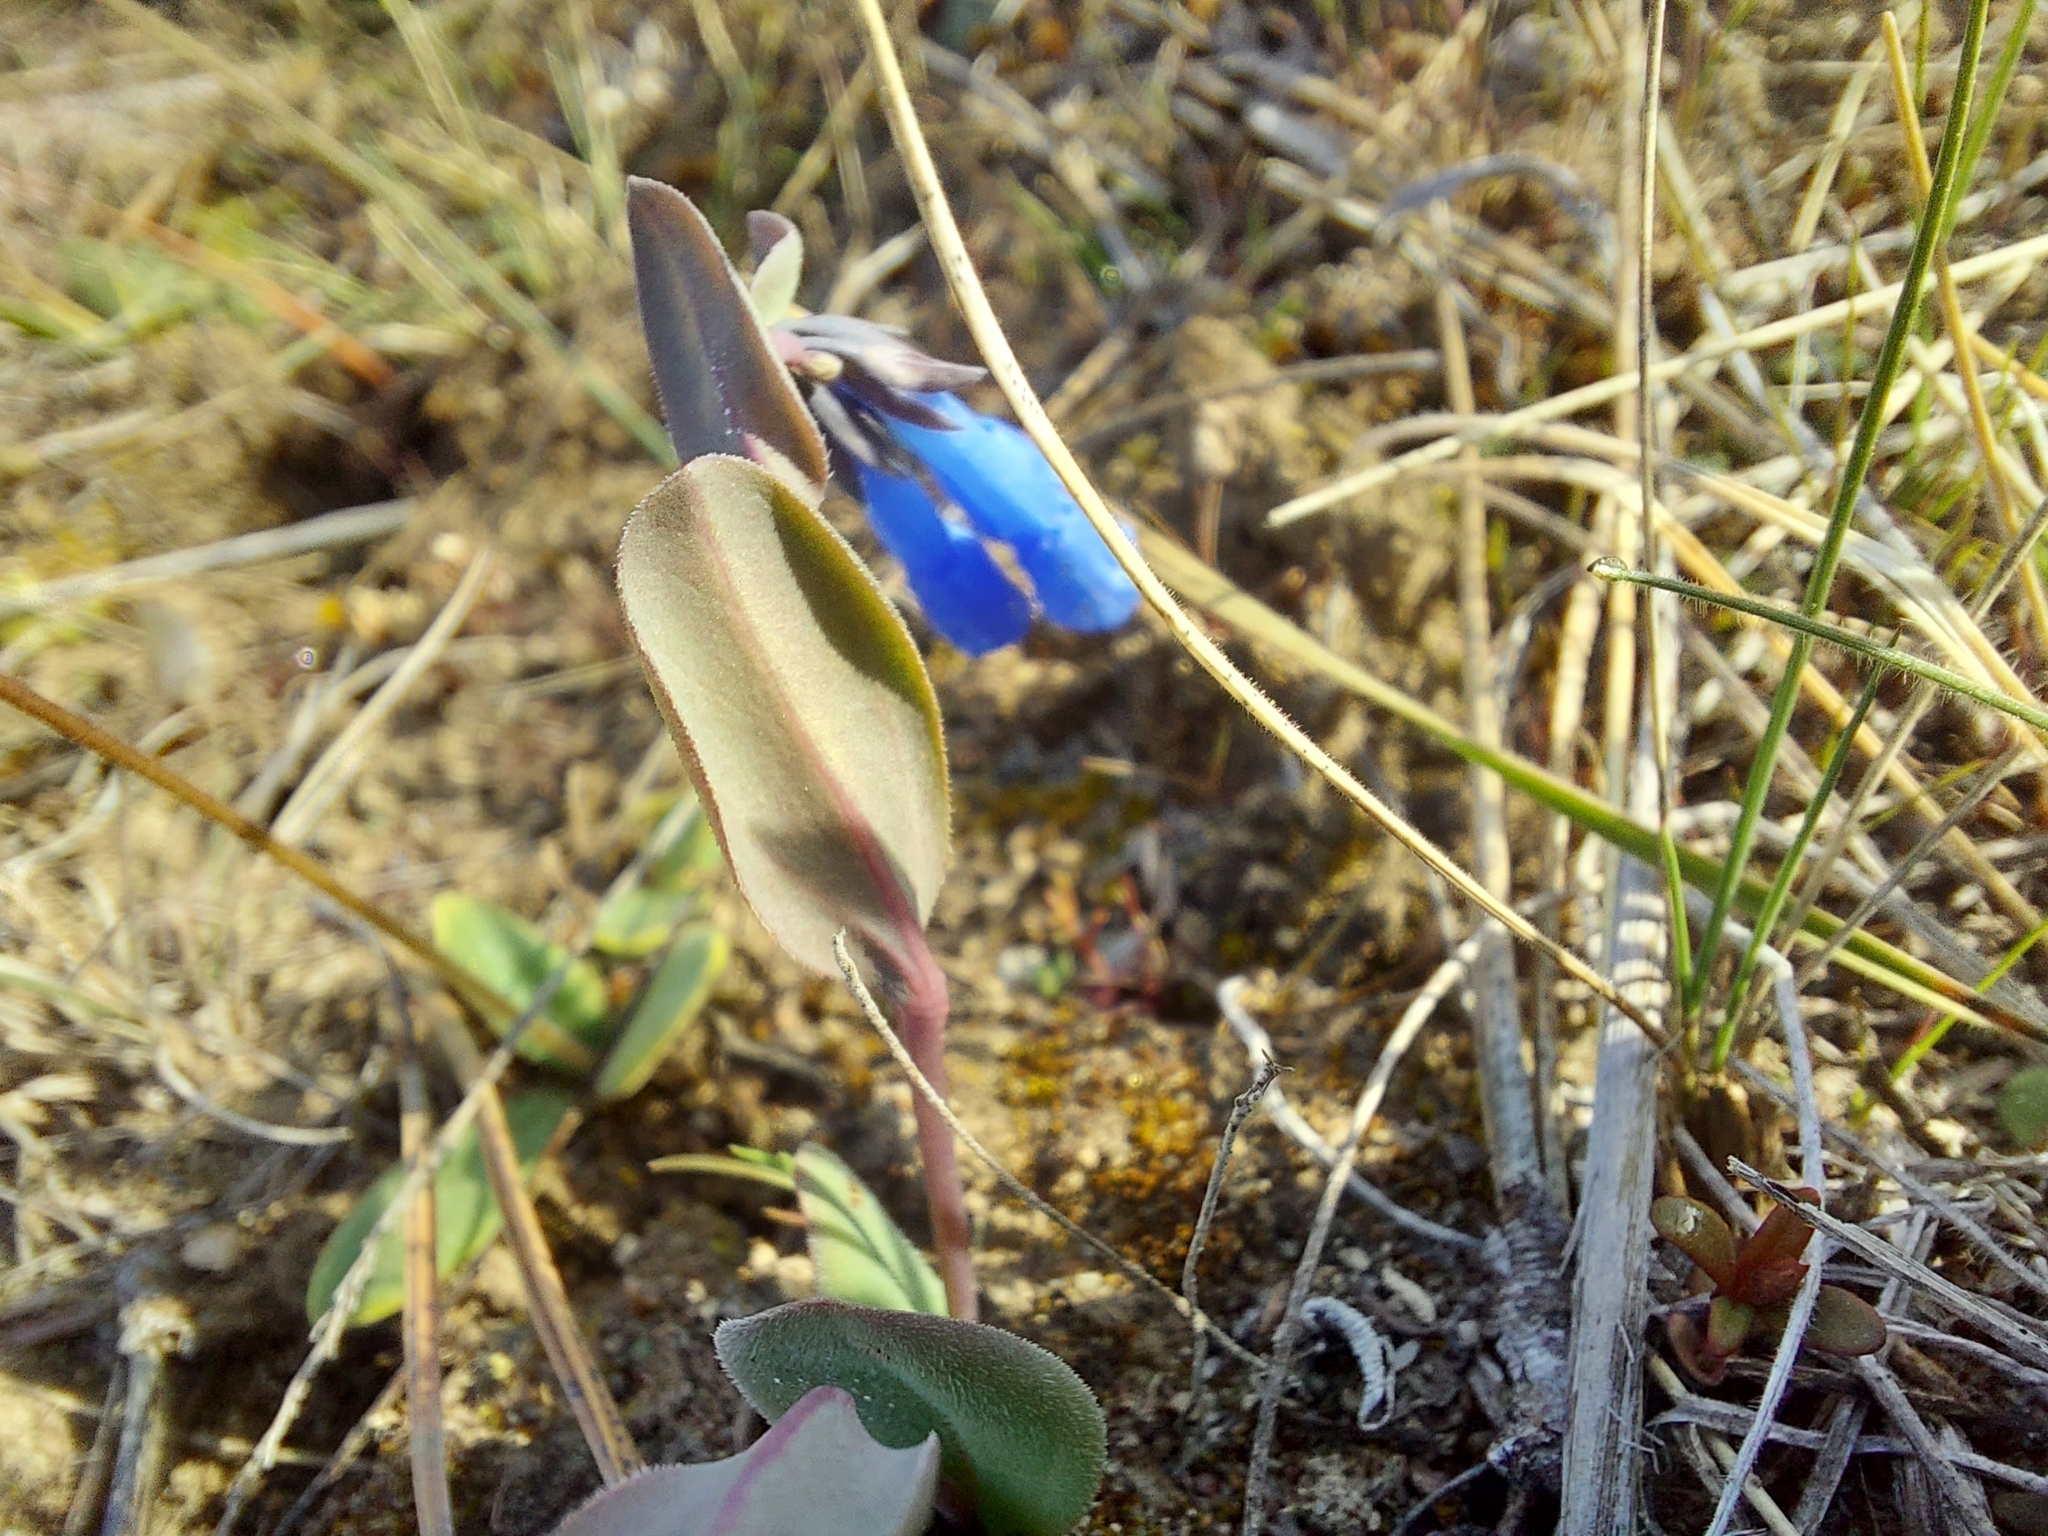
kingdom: Plantae
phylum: Tracheophyta
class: Magnoliopsida
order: Boraginales
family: Boraginaceae
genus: Mertensia
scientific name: Mertensia longiflora
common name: Large-flowered bluebells
